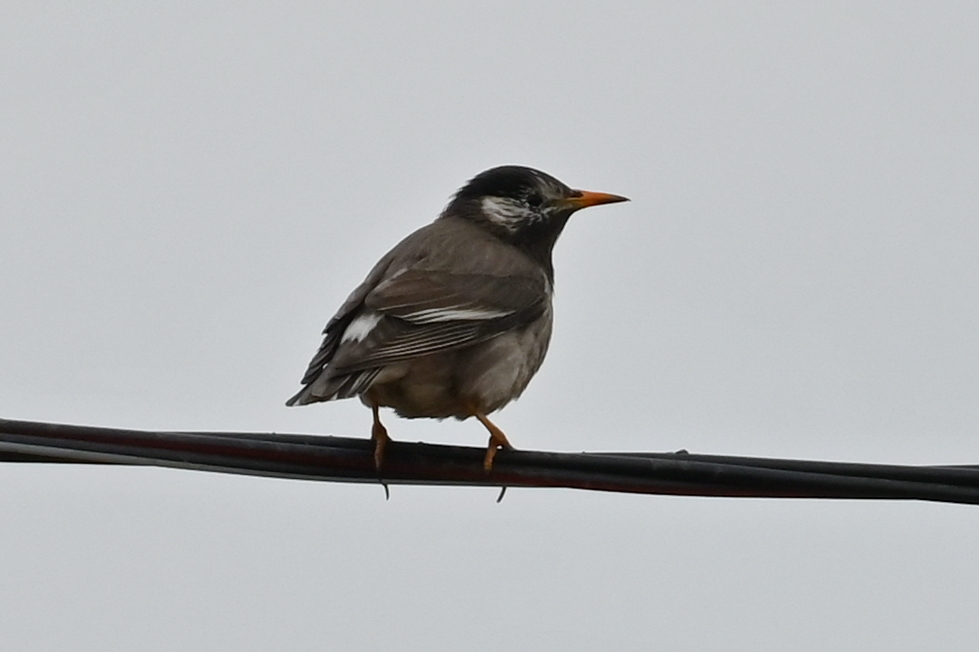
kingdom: Animalia
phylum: Chordata
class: Aves
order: Passeriformes
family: Sturnidae
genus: Spodiopsar
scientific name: Spodiopsar cineraceus
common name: White-cheeked starling
